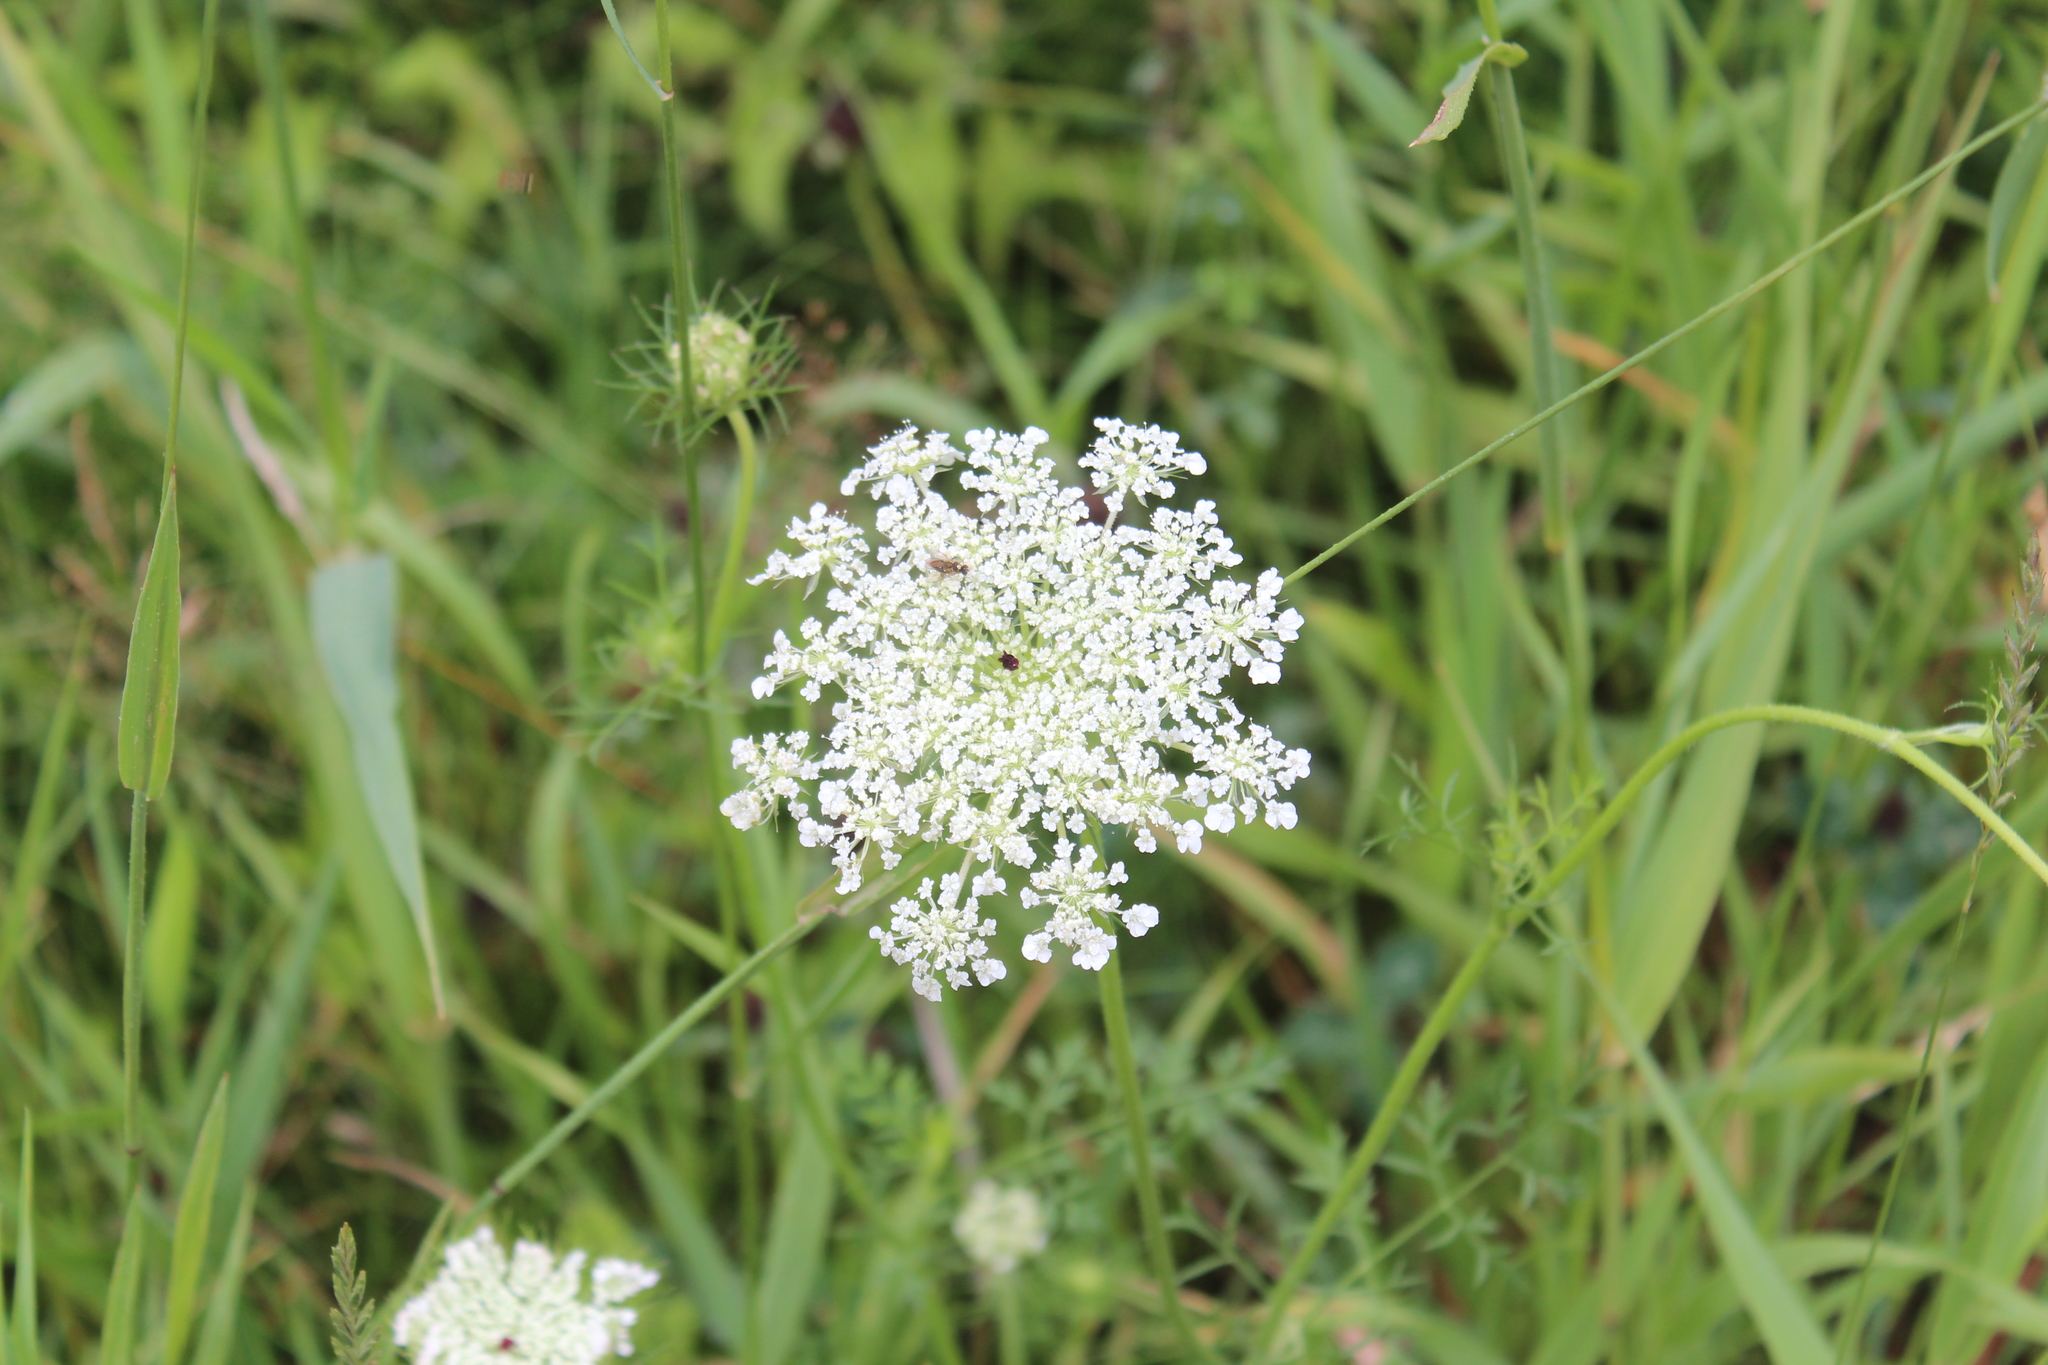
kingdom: Plantae
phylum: Tracheophyta
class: Magnoliopsida
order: Apiales
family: Apiaceae
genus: Daucus
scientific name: Daucus carota
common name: Wild carrot
